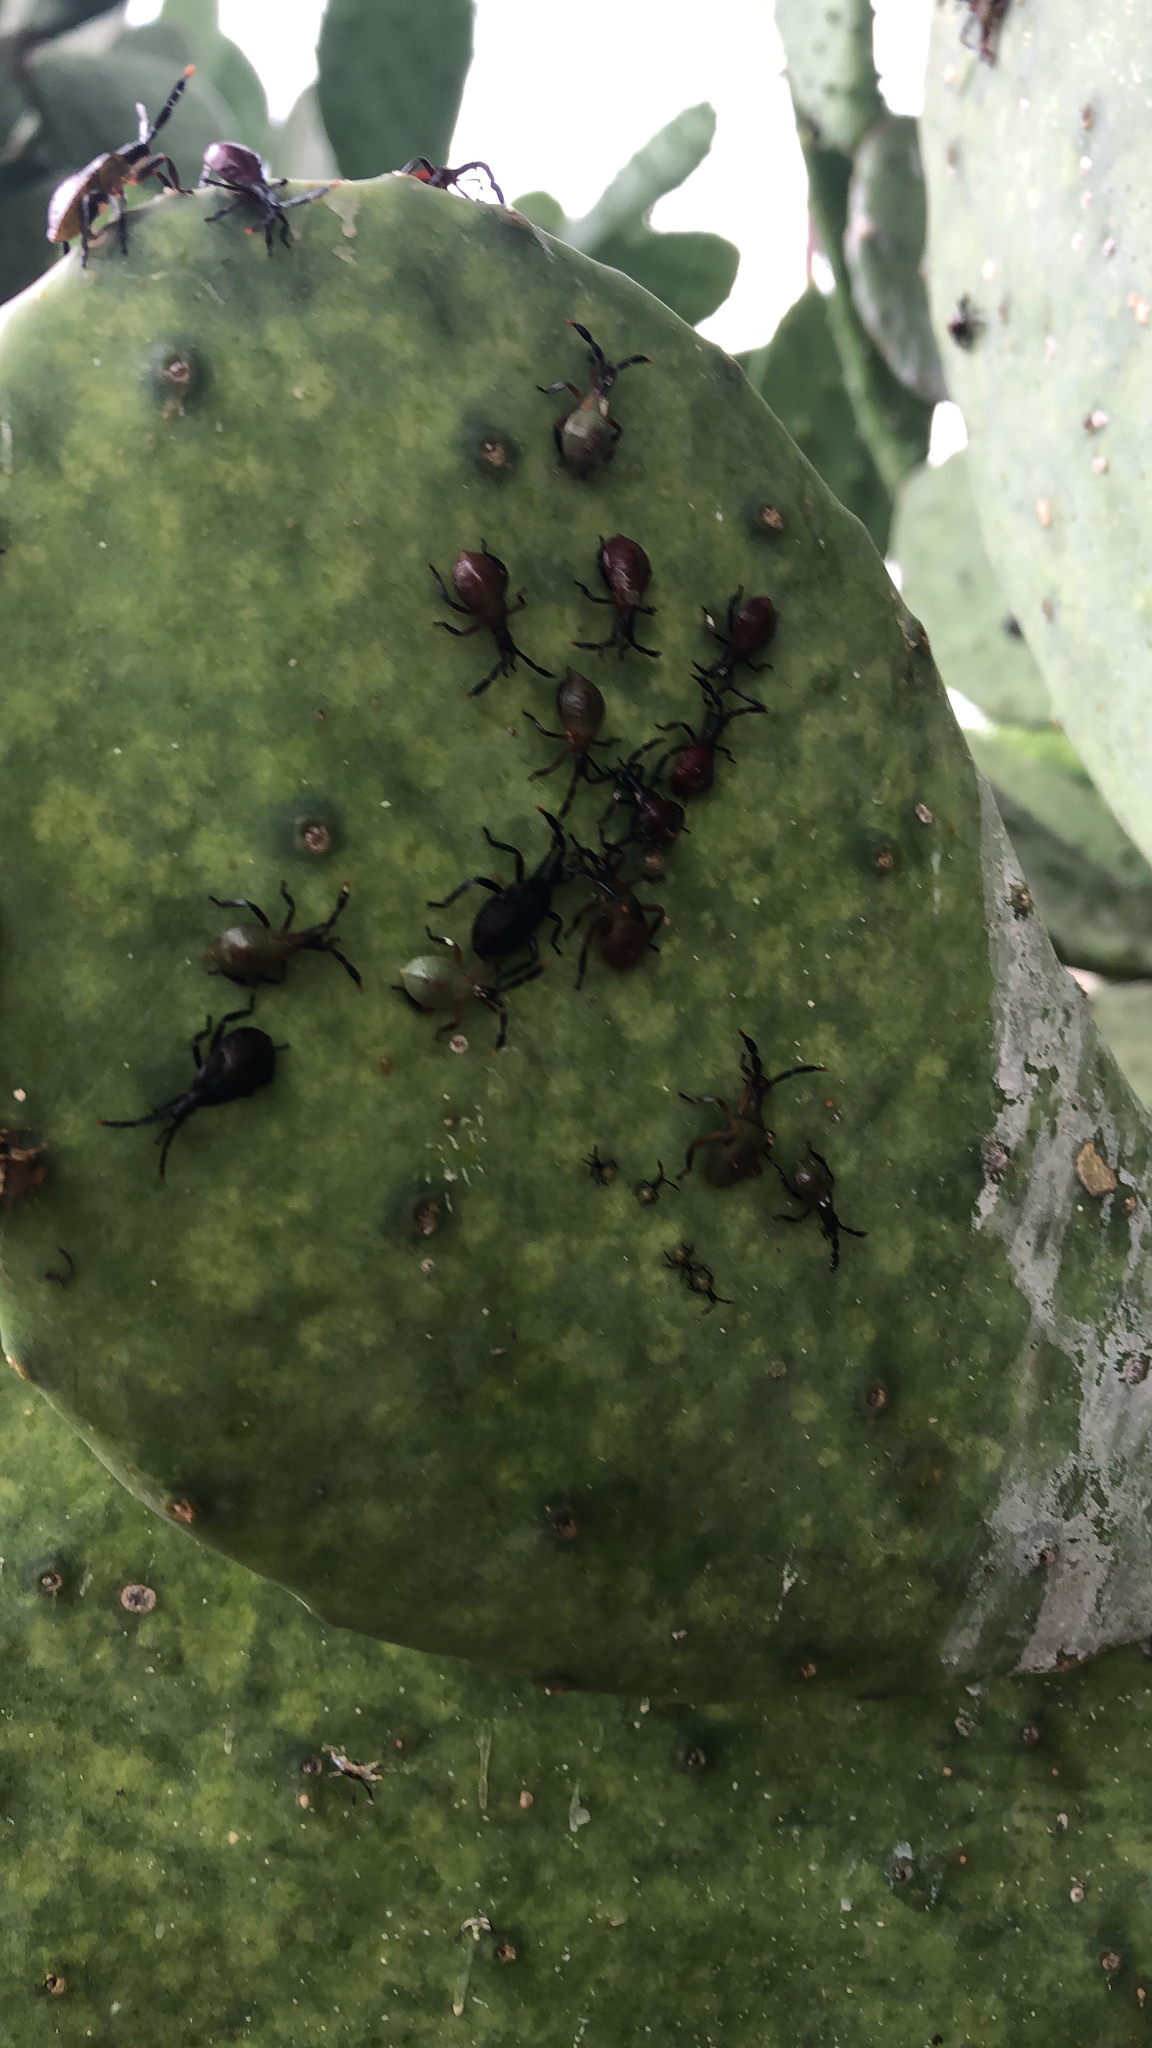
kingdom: Animalia
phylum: Arthropoda
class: Insecta
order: Hemiptera
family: Coreidae
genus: Chelinidea
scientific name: Chelinidea vittiger
